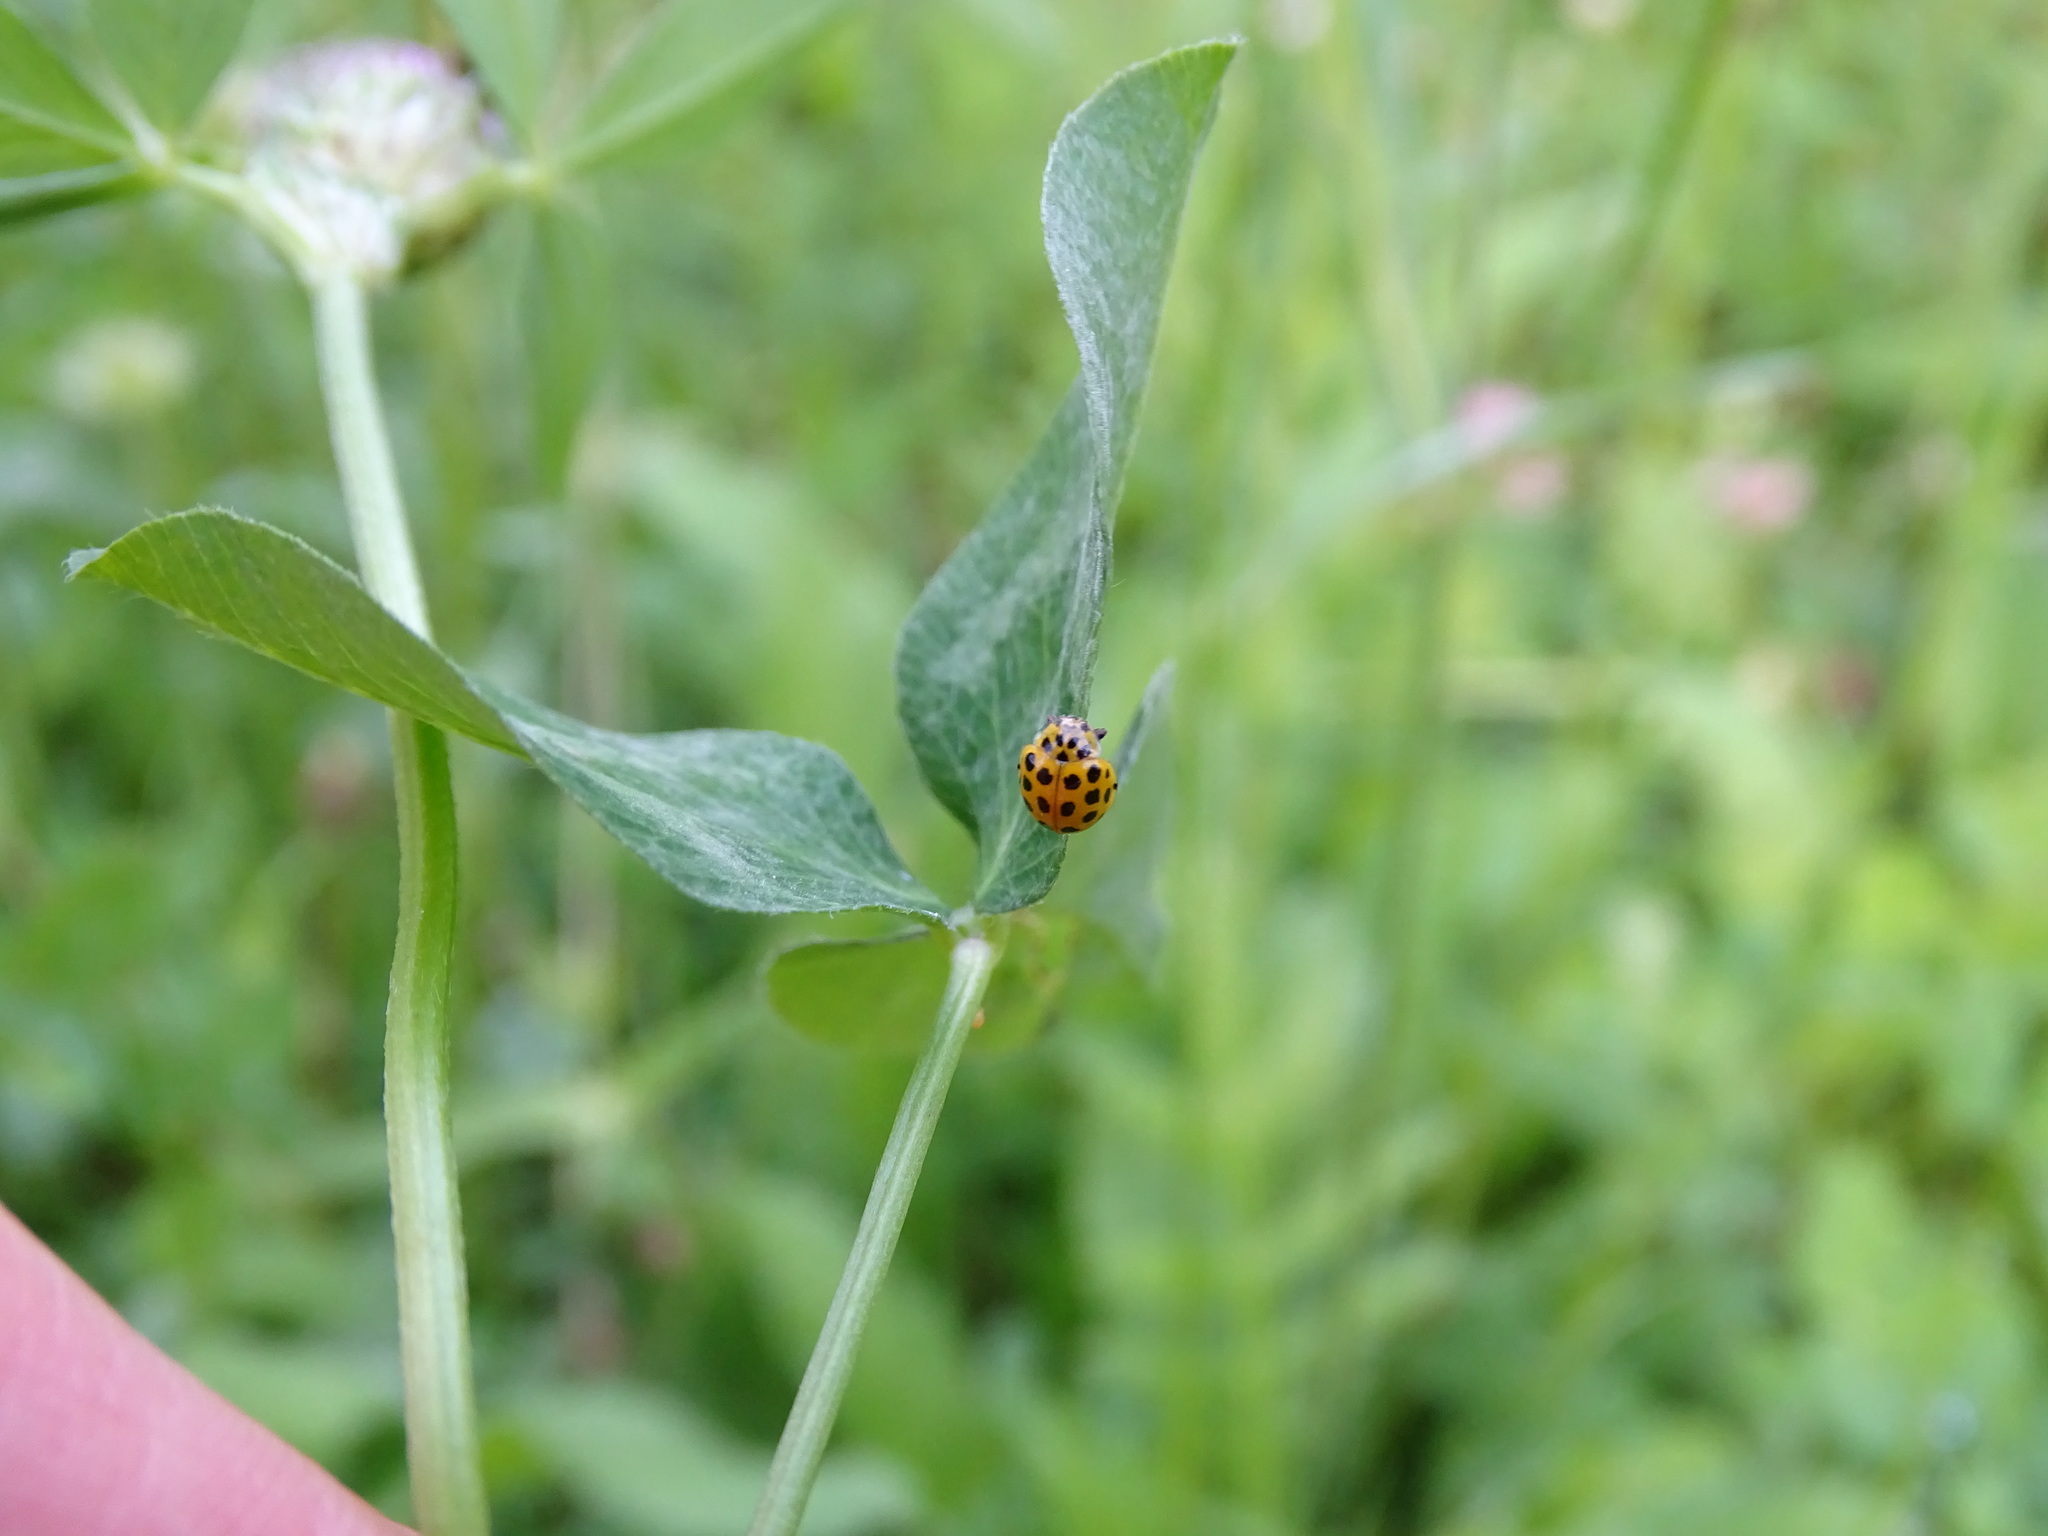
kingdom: Animalia
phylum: Arthropoda
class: Insecta
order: Coleoptera
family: Coccinellidae
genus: Psyllobora
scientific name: Psyllobora vigintiduopunctata
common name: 22-spot ladybird
